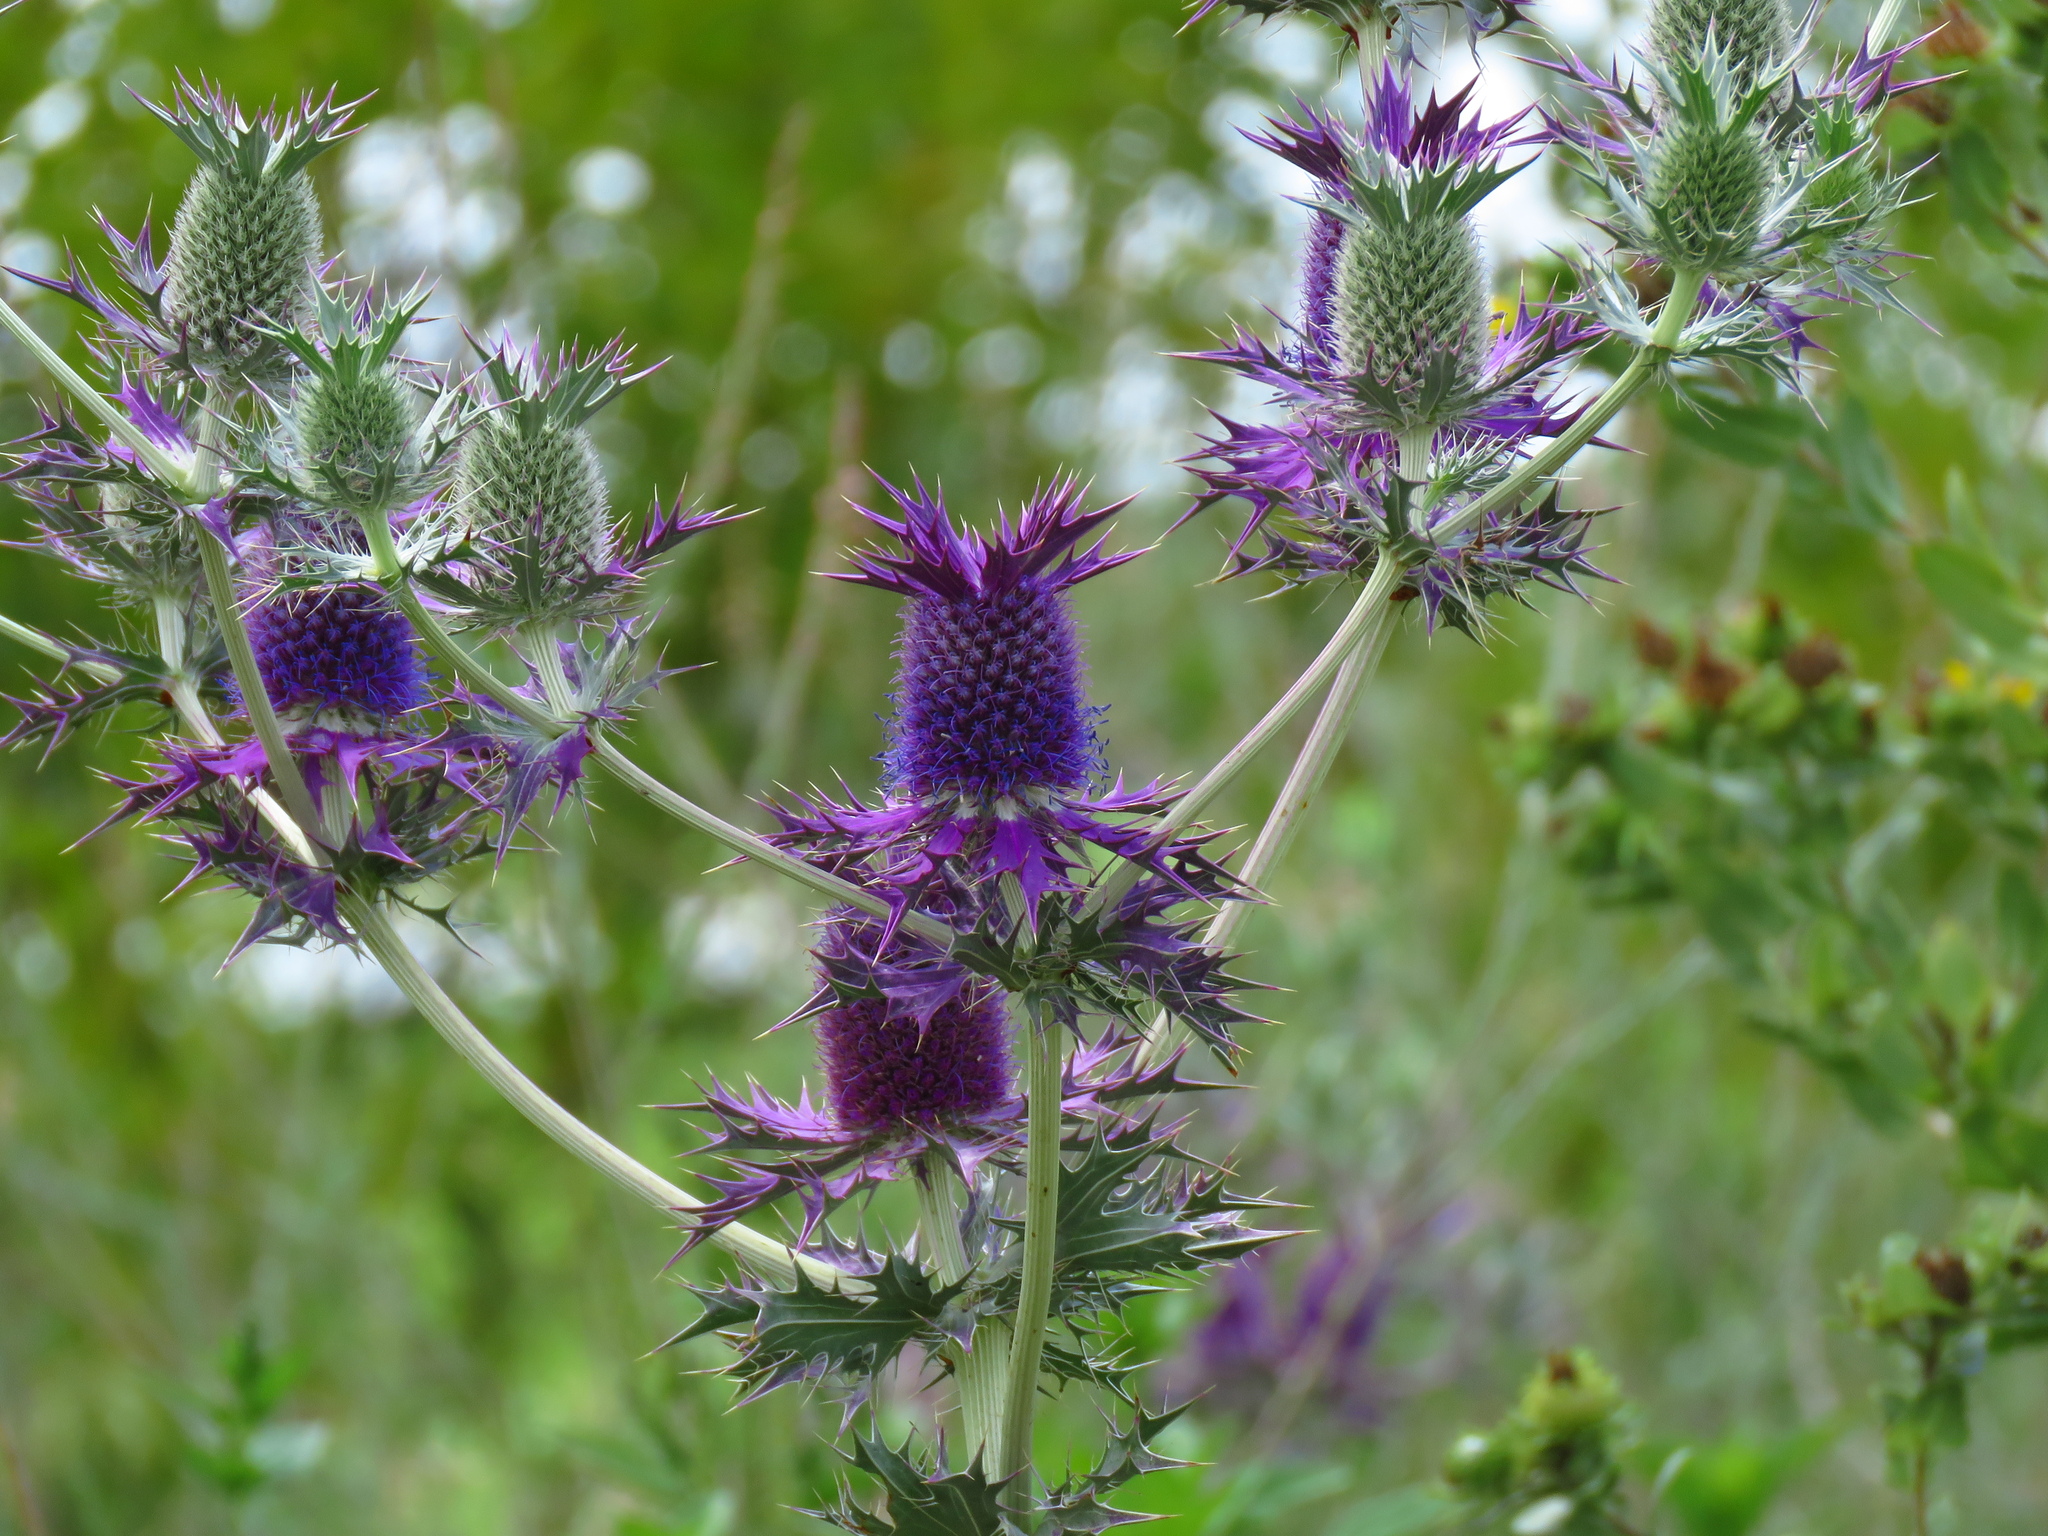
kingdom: Plantae
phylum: Tracheophyta
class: Magnoliopsida
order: Apiales
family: Apiaceae
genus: Eryngium
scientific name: Eryngium leavenworthii
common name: Leavenworth's eryngo
